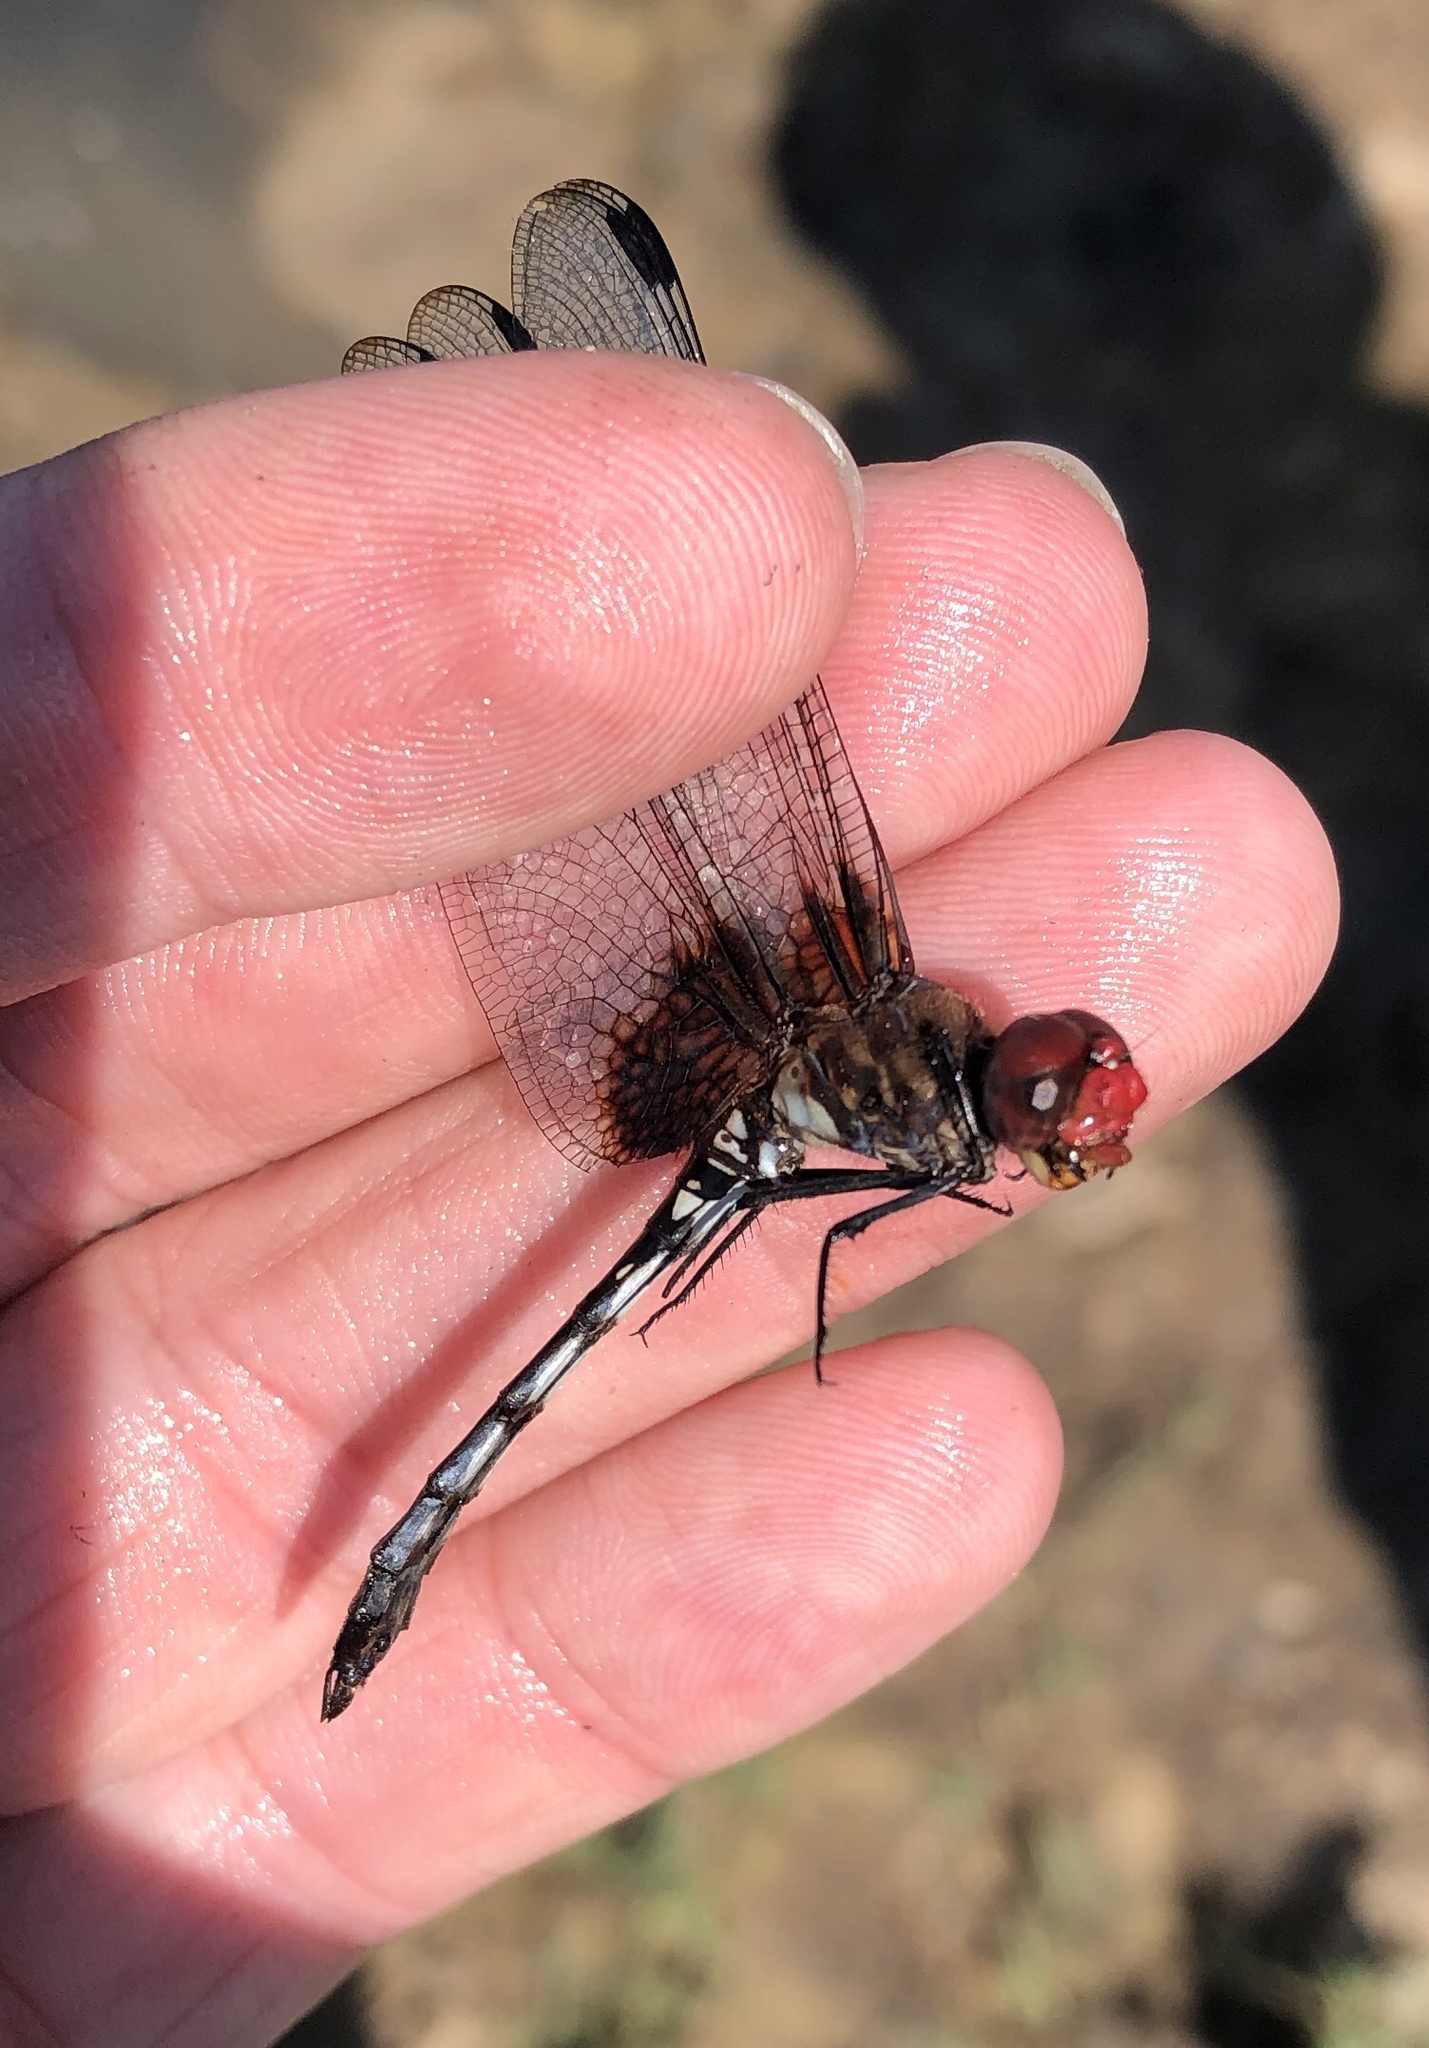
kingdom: Animalia
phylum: Arthropoda
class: Insecta
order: Odonata
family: Libellulidae
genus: Dythemis
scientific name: Dythemis fugax
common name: Checkered setwing
